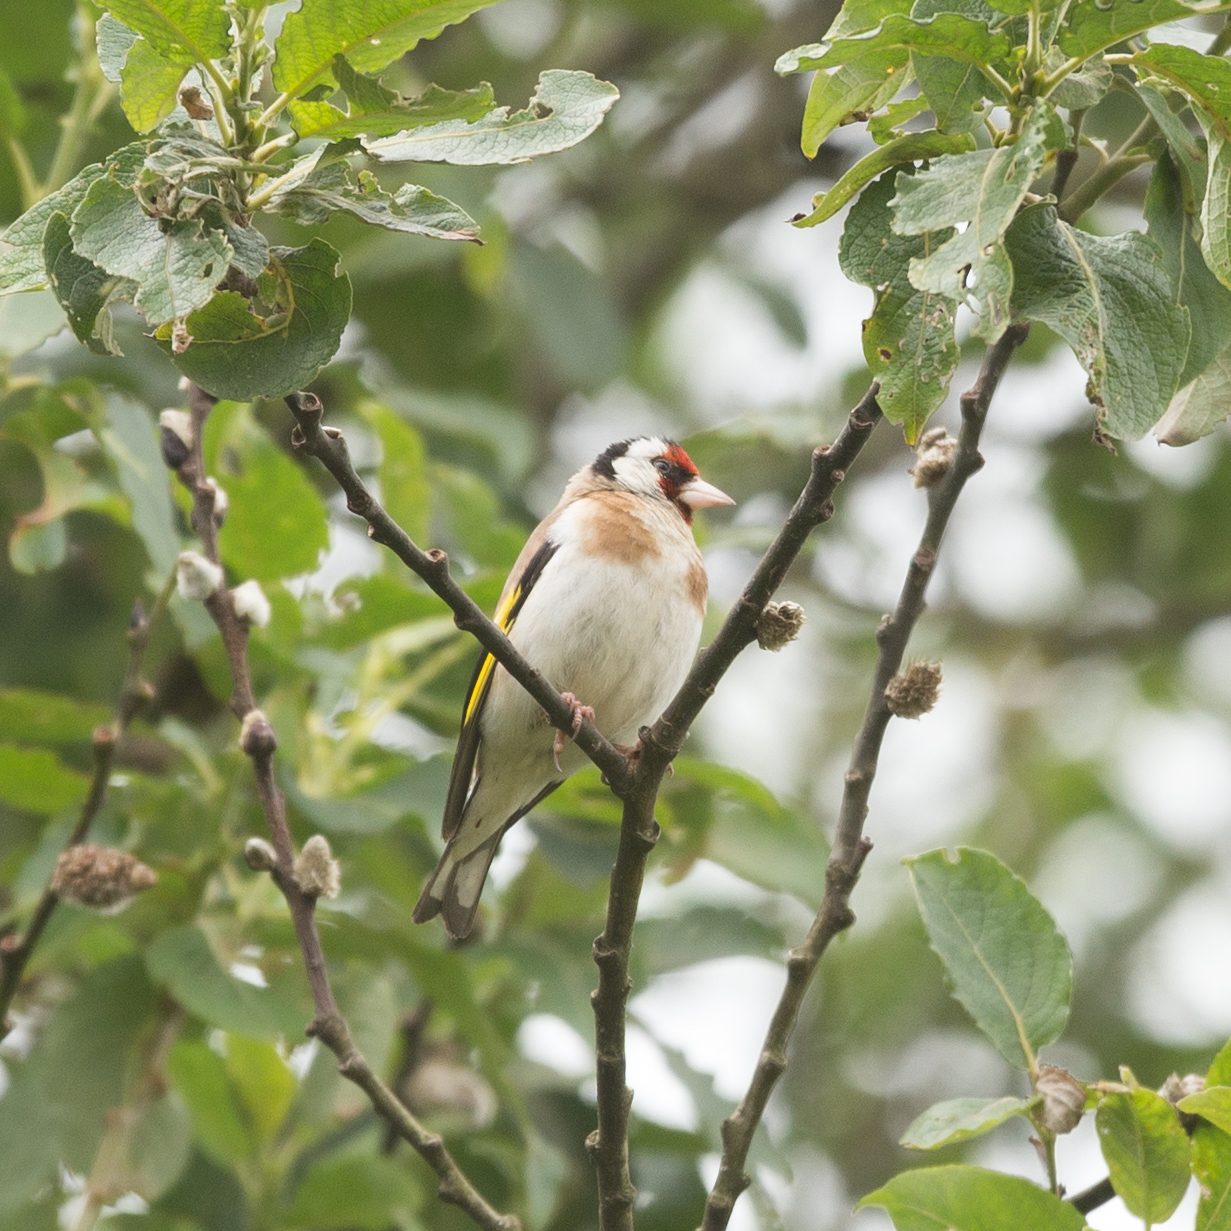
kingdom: Animalia
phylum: Chordata
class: Aves
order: Passeriformes
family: Fringillidae
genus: Carduelis
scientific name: Carduelis carduelis
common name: European goldfinch
